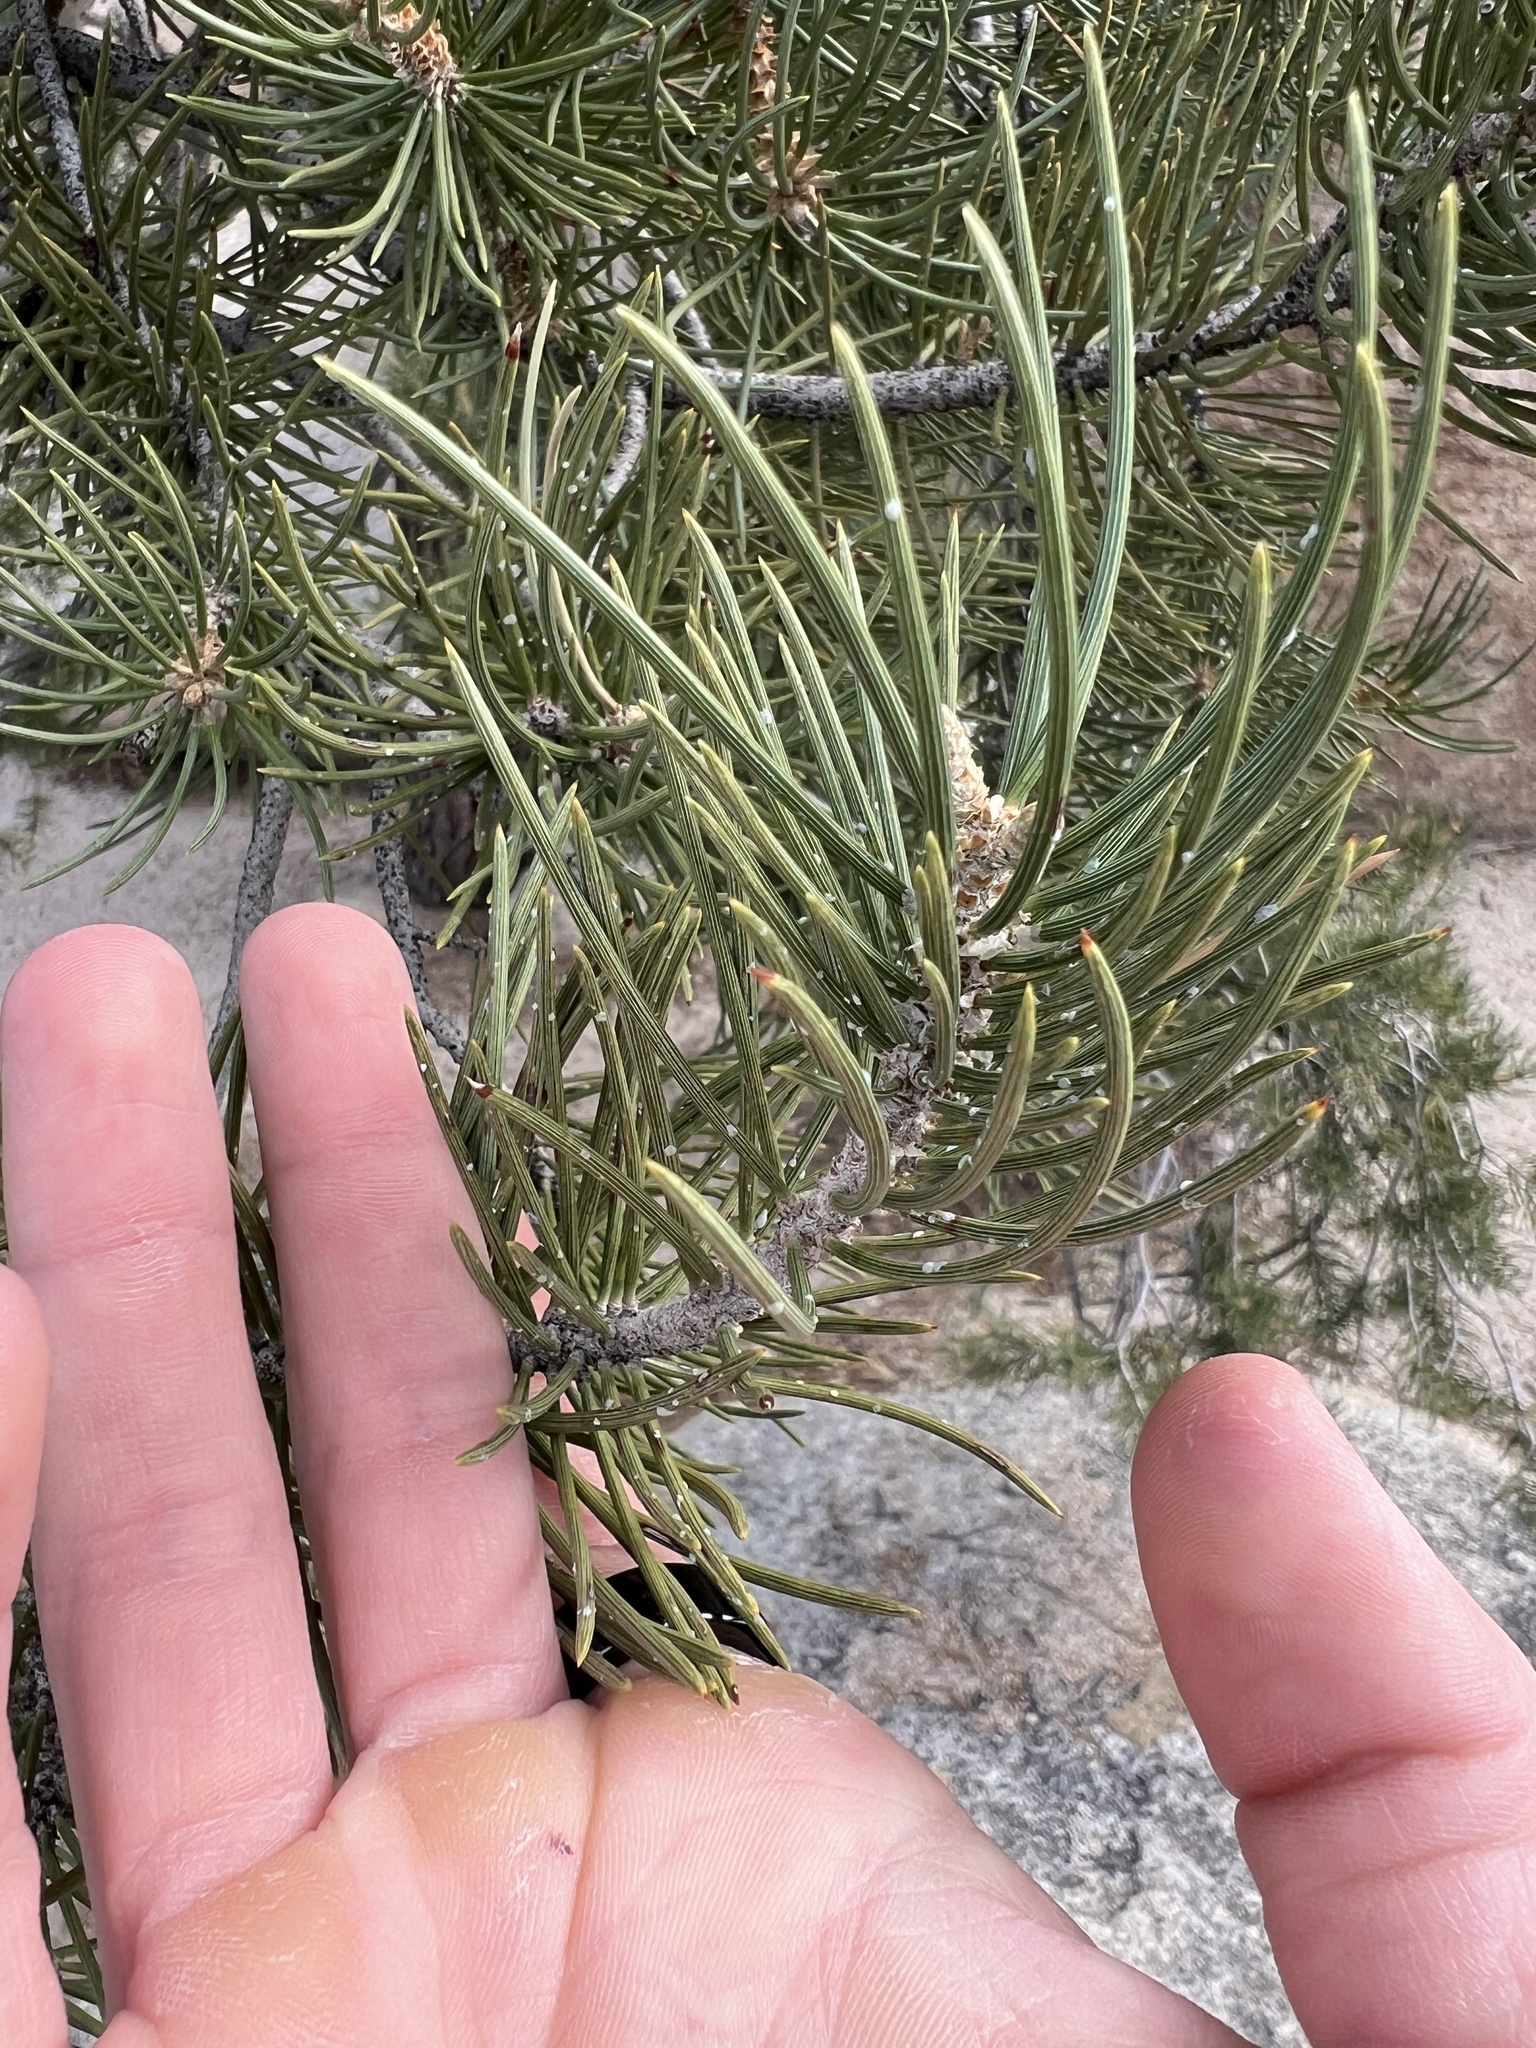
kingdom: Plantae
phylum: Tracheophyta
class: Pinopsida
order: Pinales
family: Pinaceae
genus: Pinus
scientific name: Pinus monophylla
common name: One-leaved nut pine
